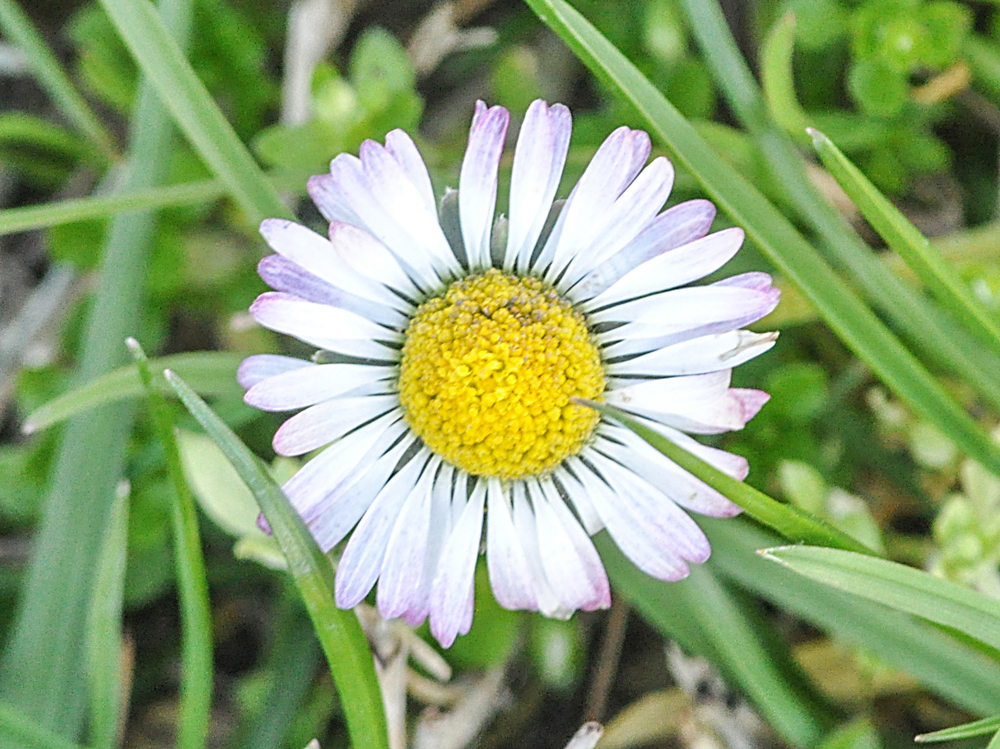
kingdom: Plantae
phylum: Tracheophyta
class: Magnoliopsida
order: Asterales
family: Asteraceae
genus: Bellis
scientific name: Bellis perennis
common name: Lawndaisy
